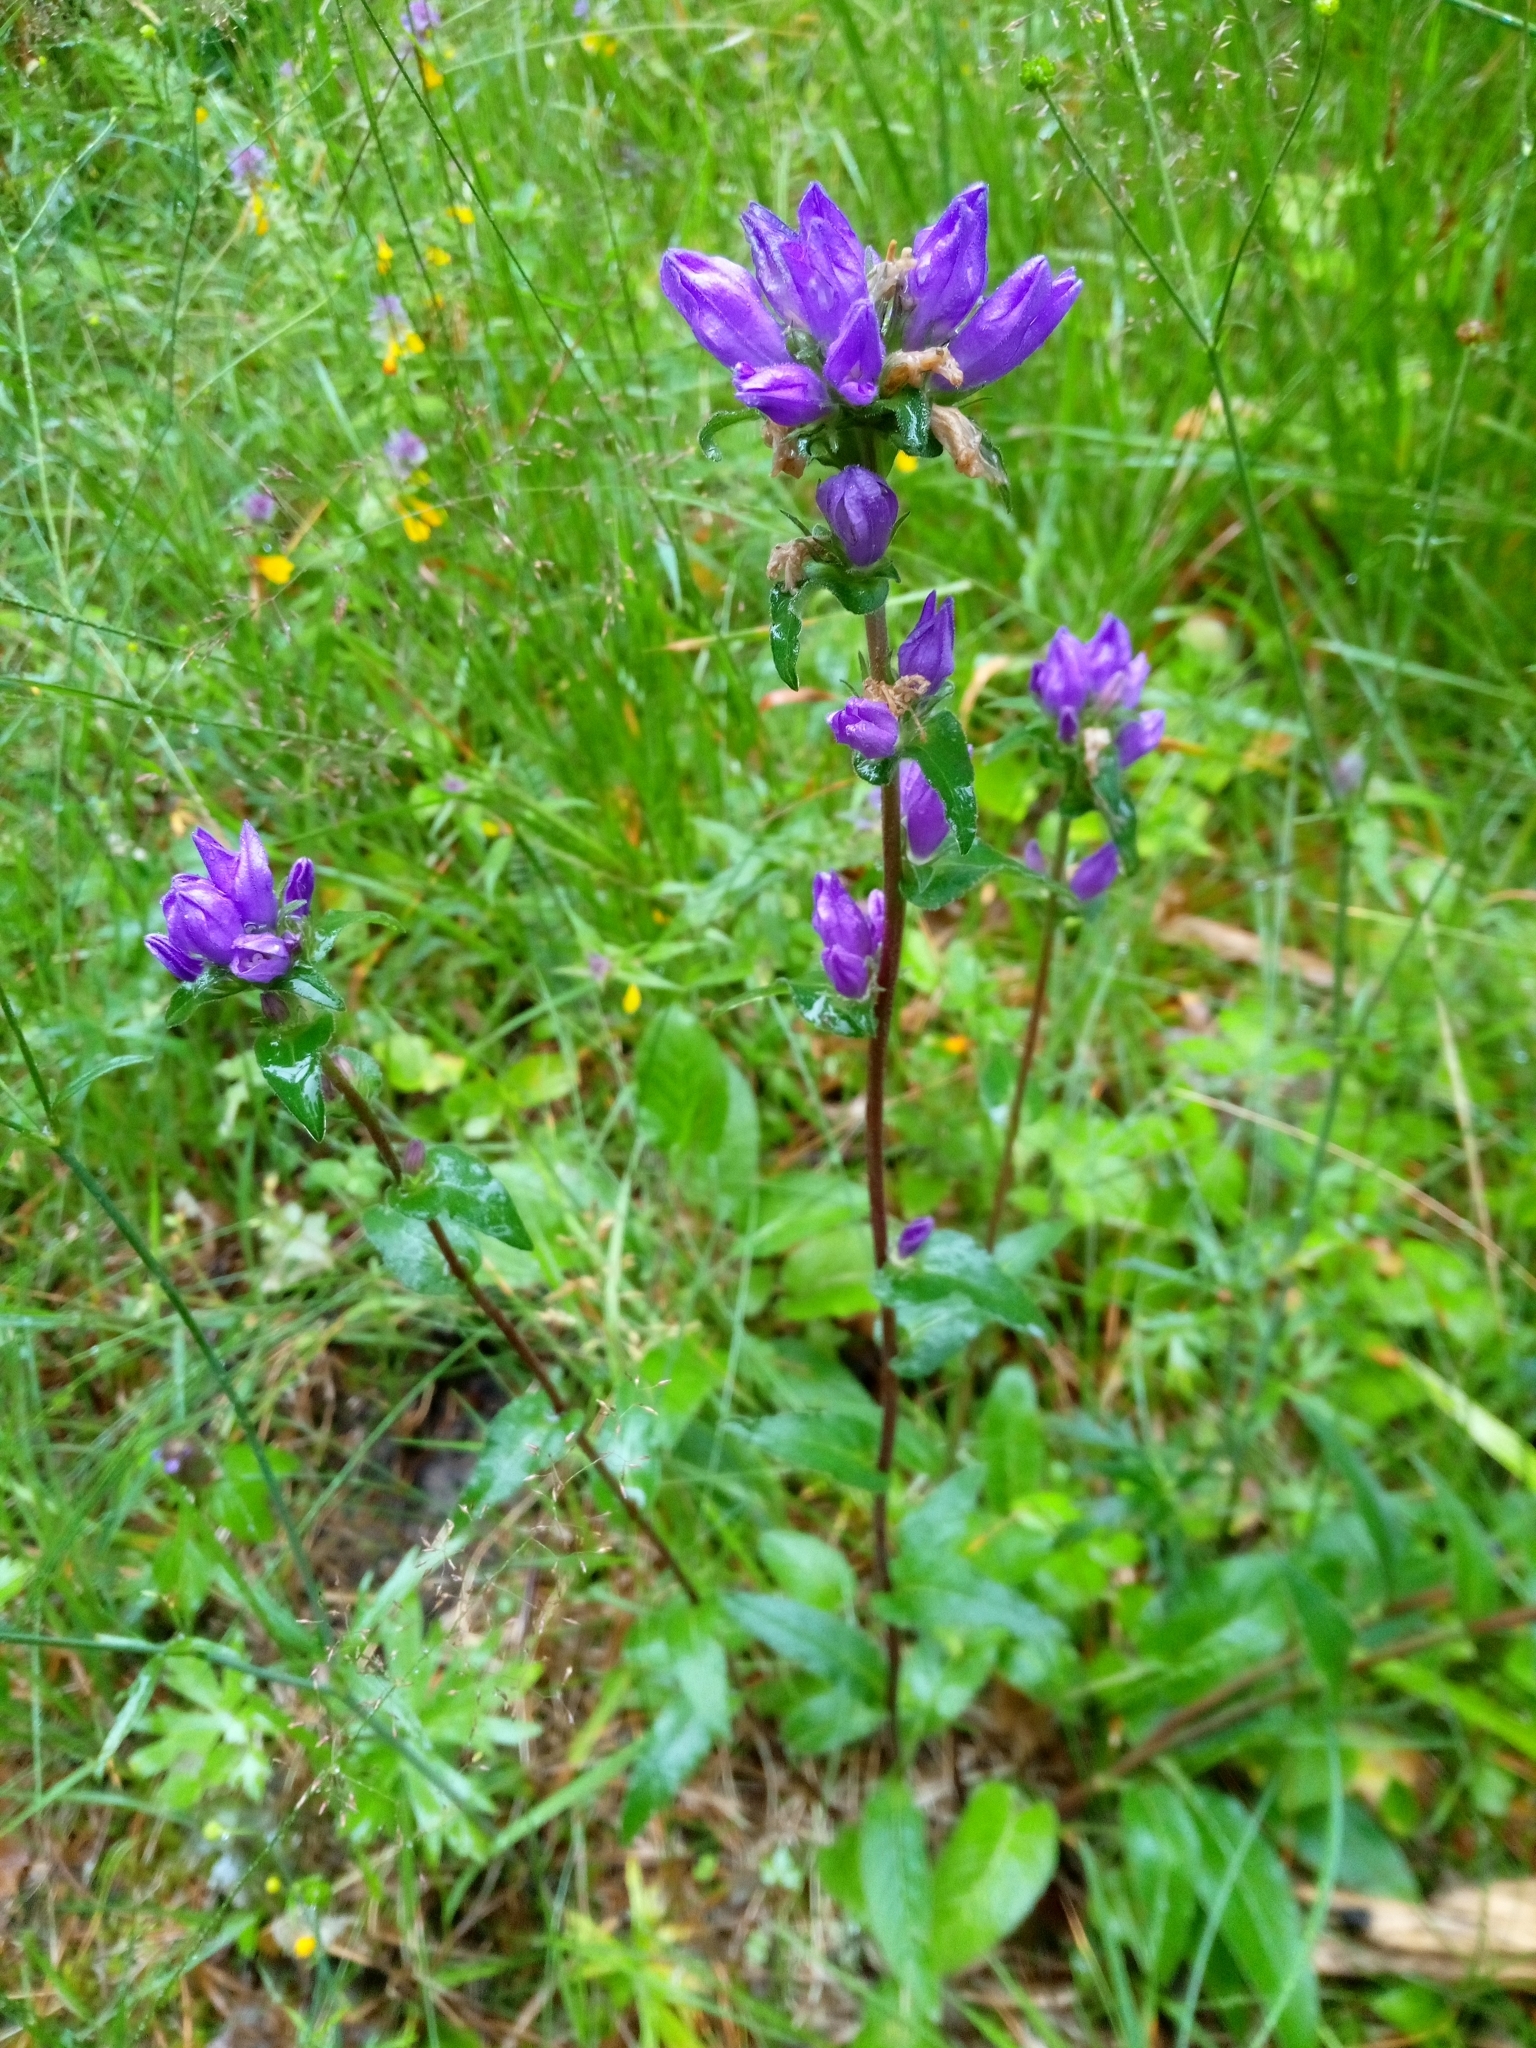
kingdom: Plantae
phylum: Tracheophyta
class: Magnoliopsida
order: Asterales
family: Campanulaceae
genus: Campanula
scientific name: Campanula glomerata
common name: Clustered bellflower
